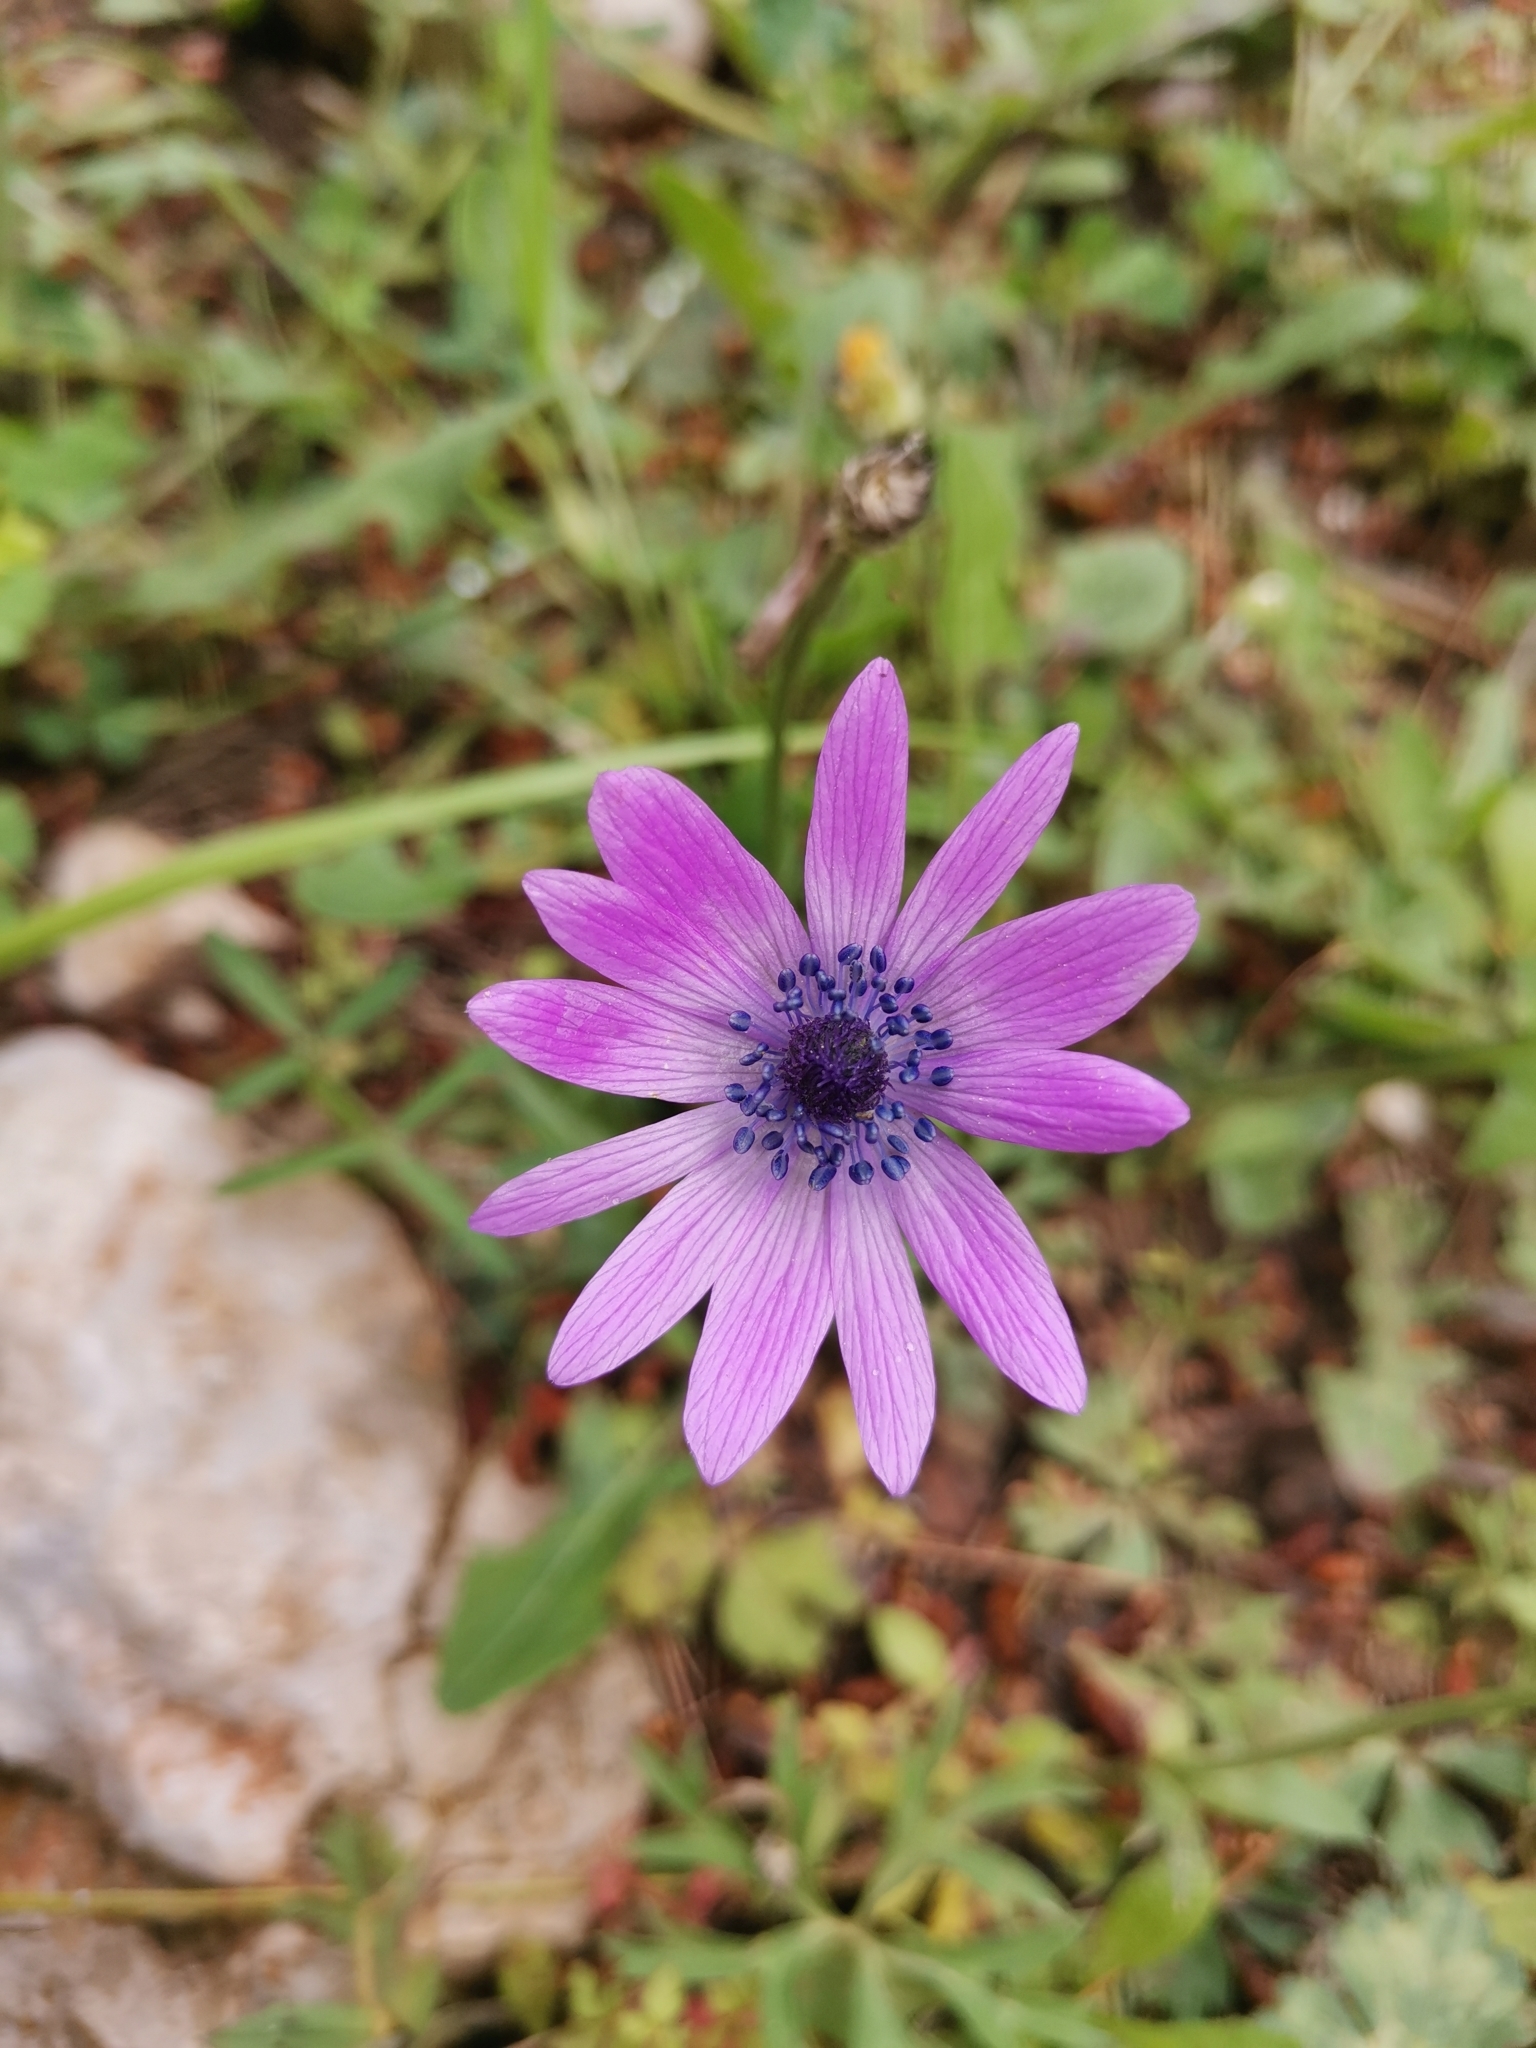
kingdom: Plantae
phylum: Tracheophyta
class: Magnoliopsida
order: Ranunculales
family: Ranunculaceae
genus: Anemone
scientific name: Anemone hortensis
